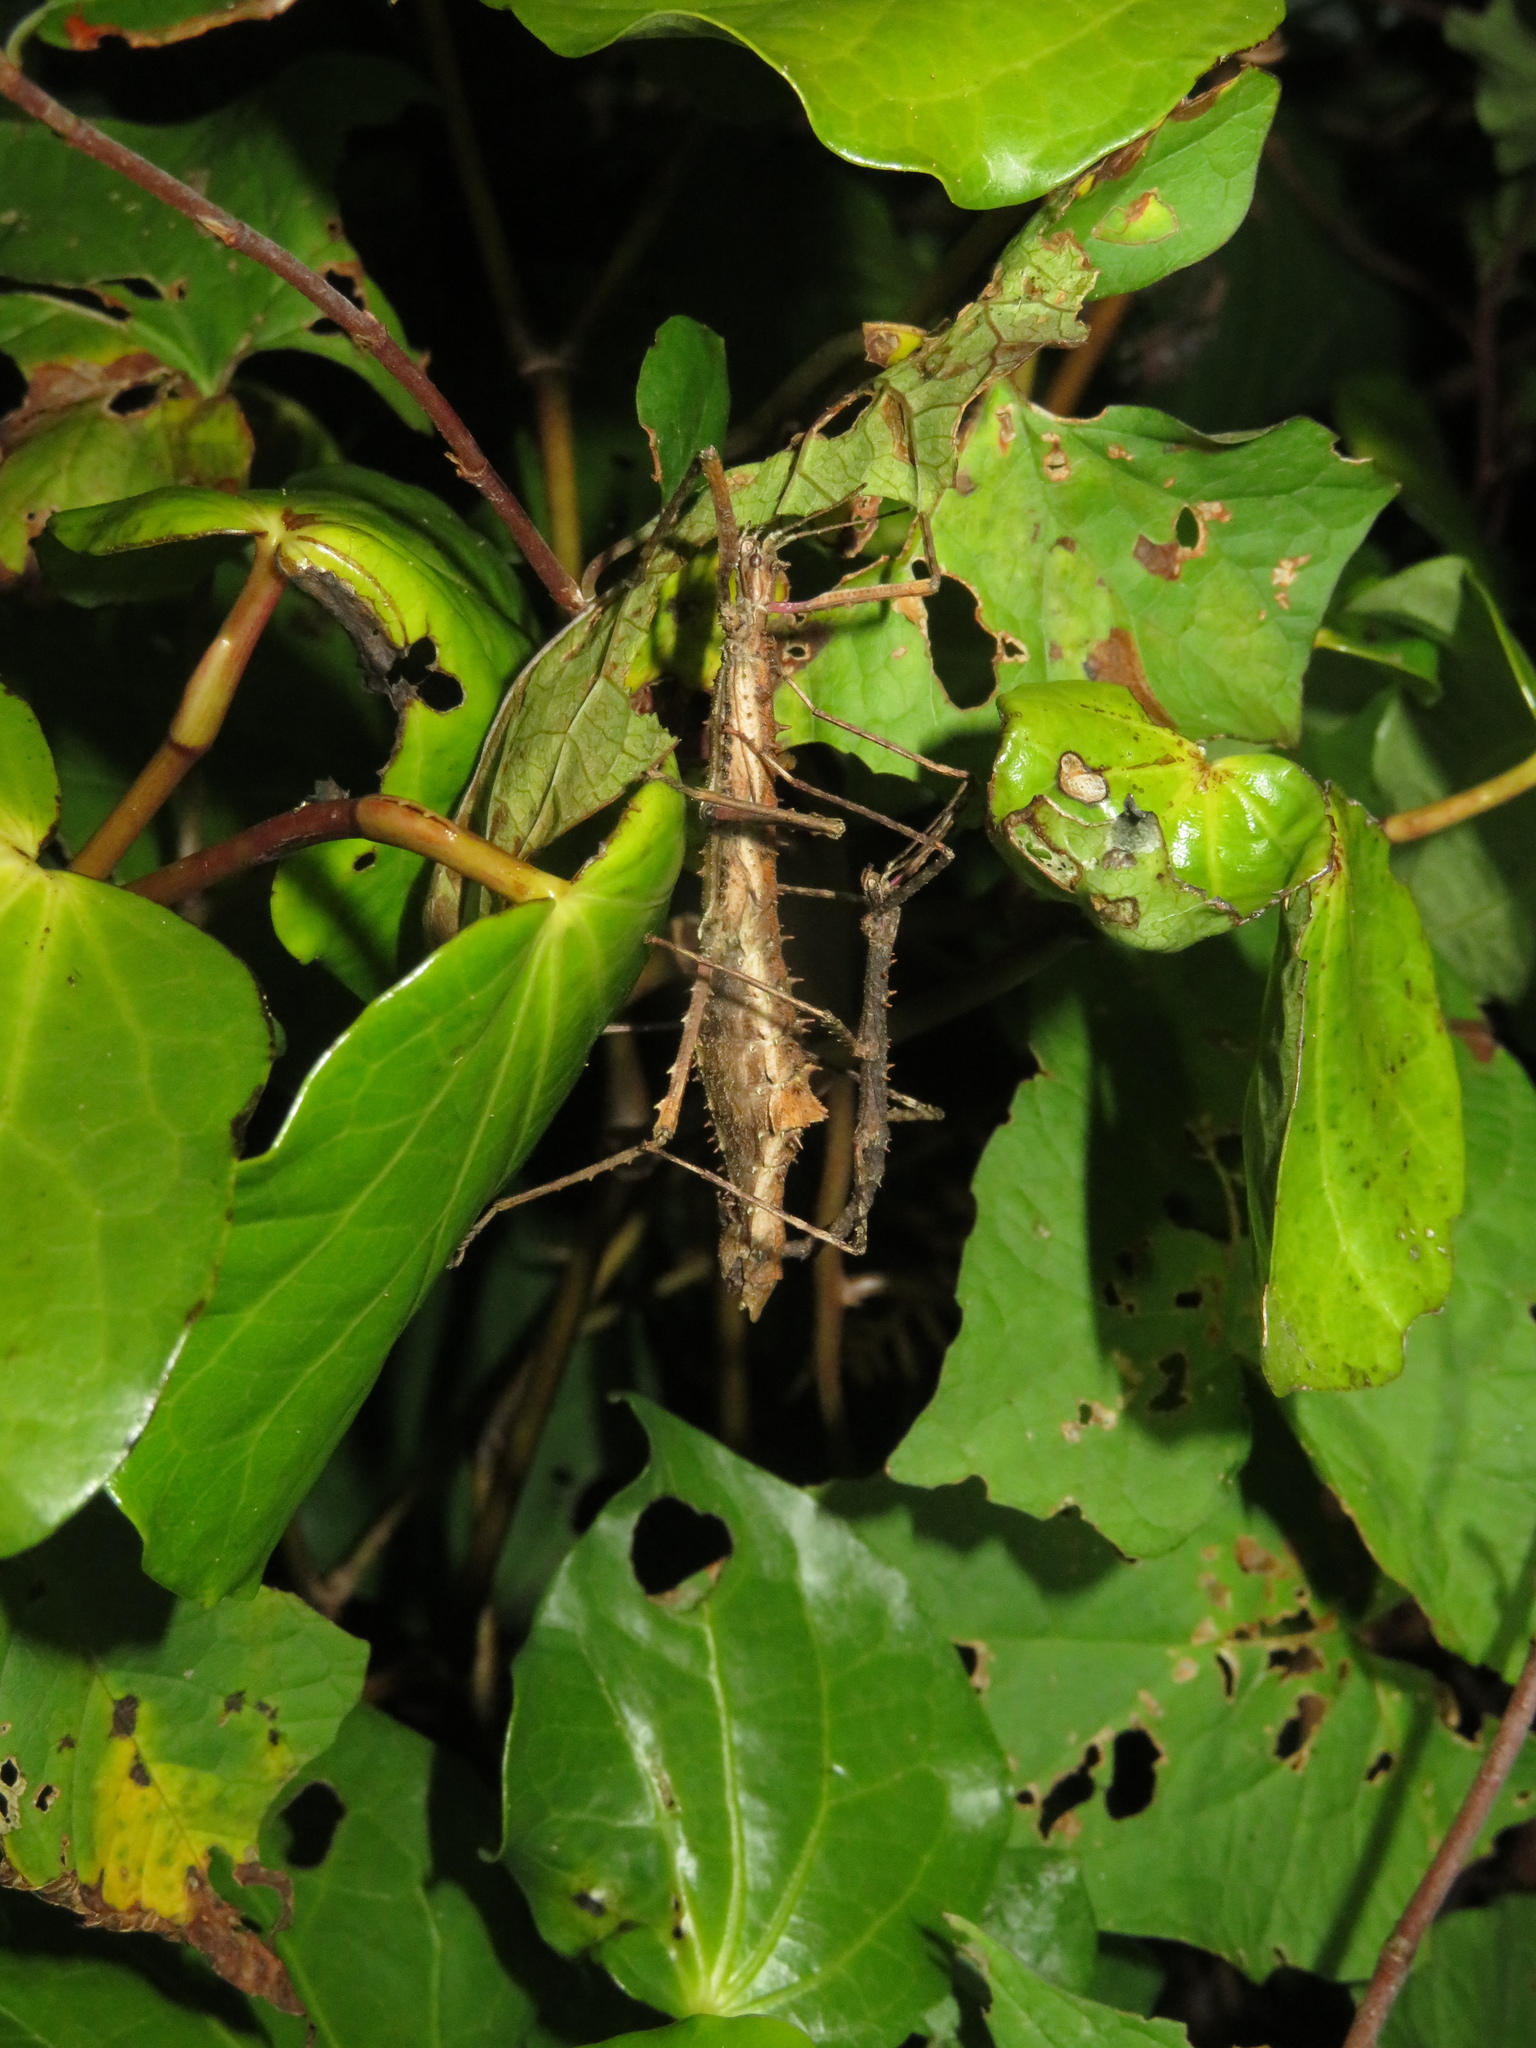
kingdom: Animalia
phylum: Arthropoda
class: Insecta
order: Phasmida
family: Phasmatidae
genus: Micrarchus
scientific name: Micrarchus hystriculeus
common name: The lesser spiny stick insect
